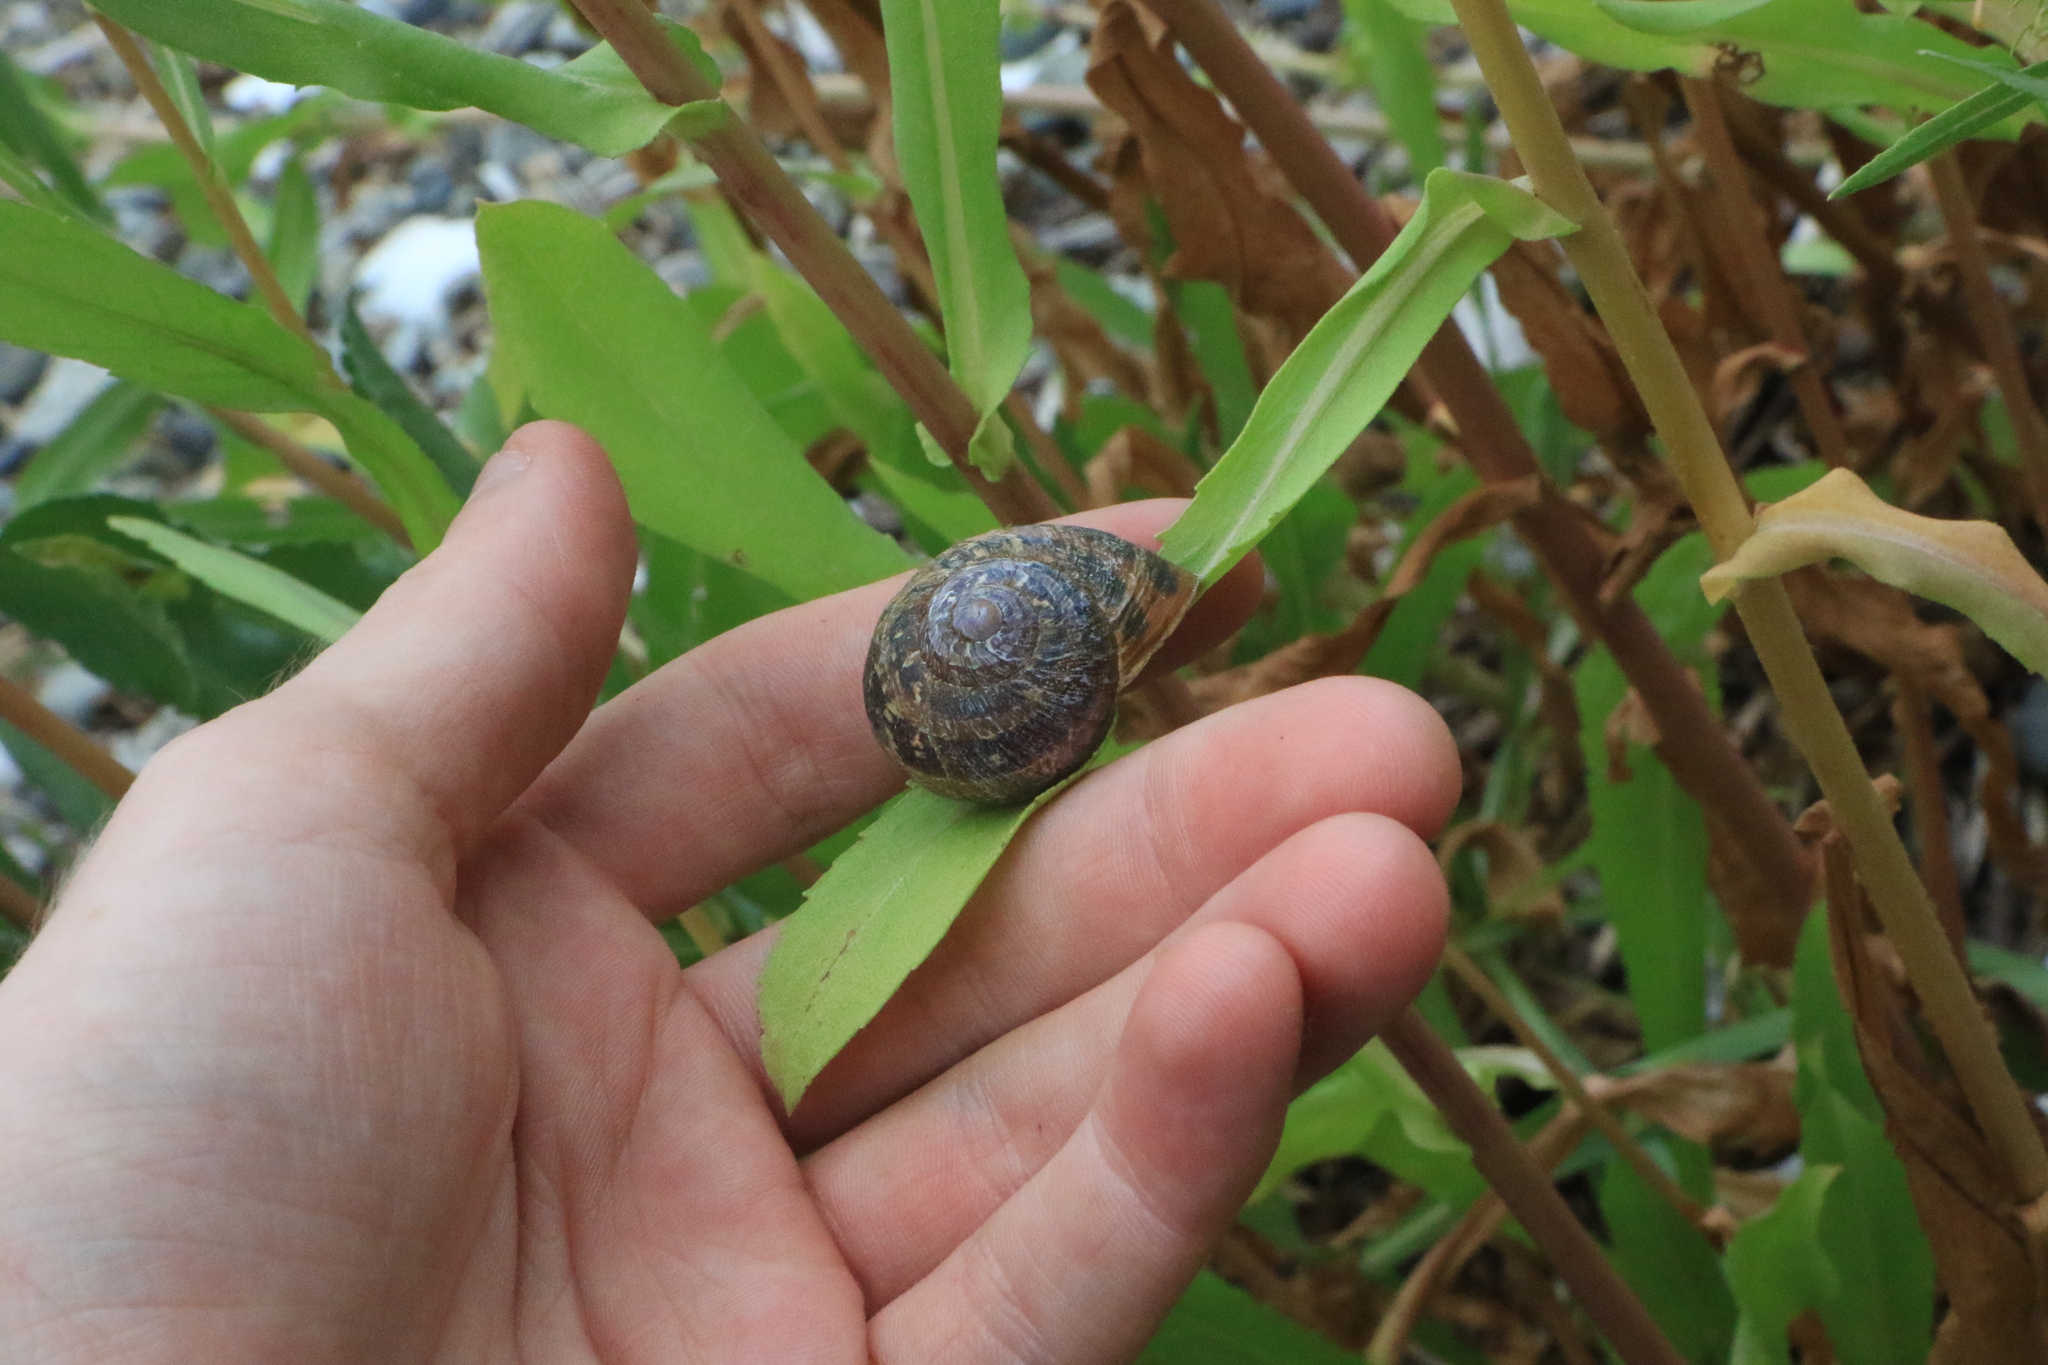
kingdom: Animalia
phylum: Mollusca
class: Gastropoda
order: Stylommatophora
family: Helicidae
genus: Cornu
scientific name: Cornu aspersum
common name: Brown garden snail
